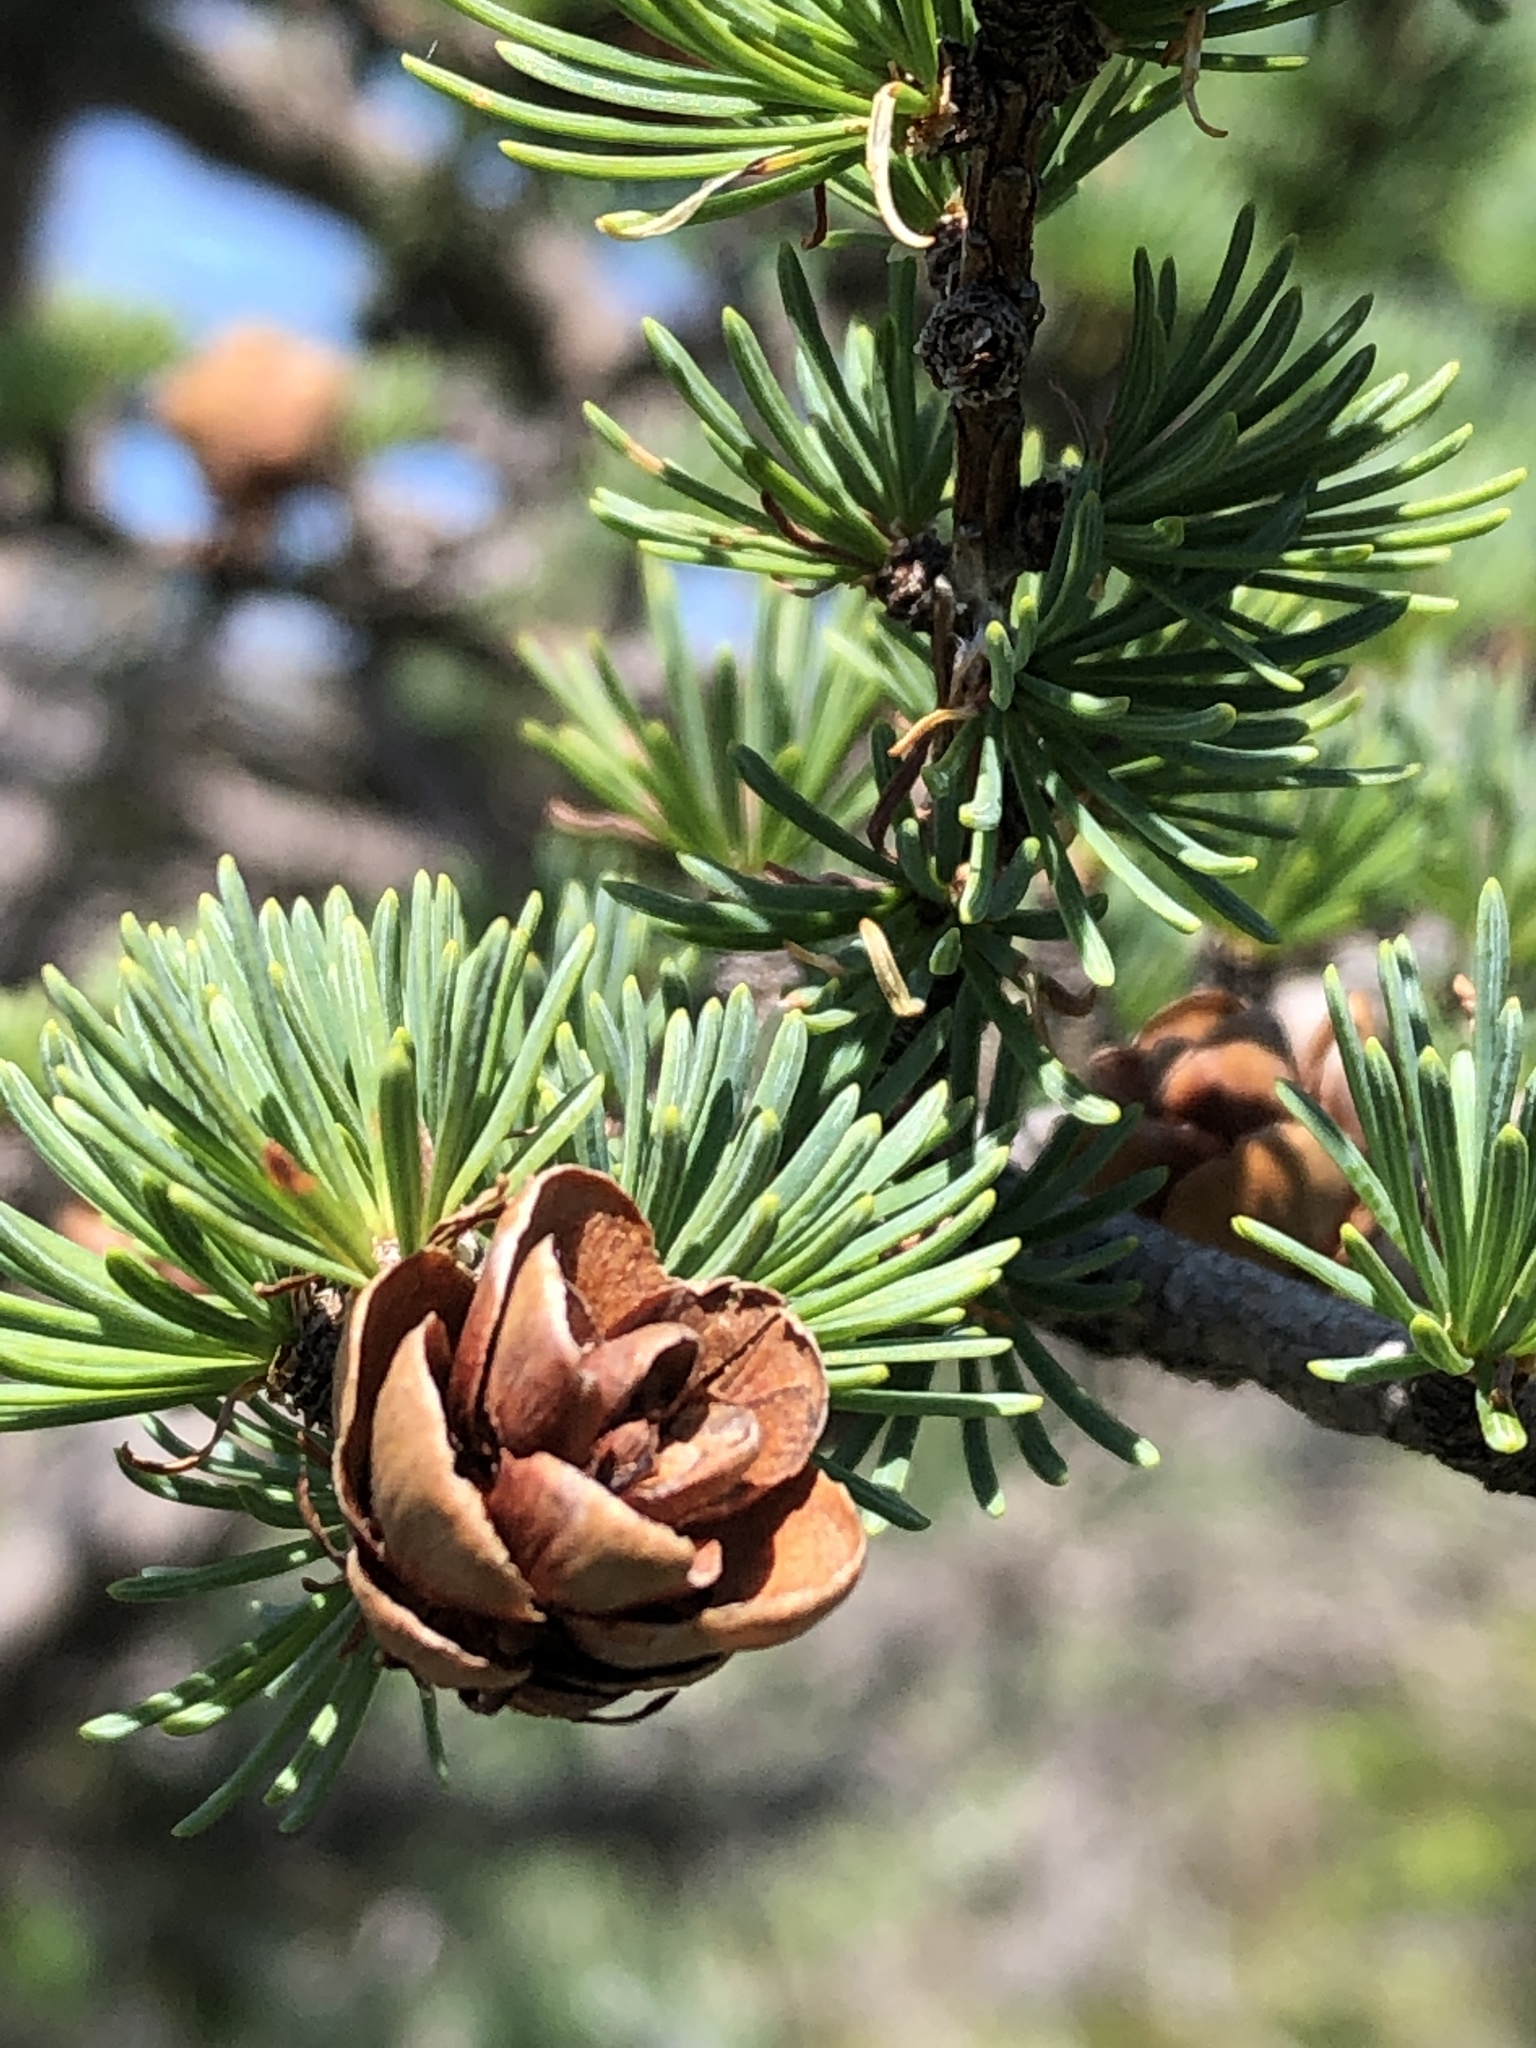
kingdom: Plantae
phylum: Tracheophyta
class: Pinopsida
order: Pinales
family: Pinaceae
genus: Larix
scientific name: Larix laricina
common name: American larch
